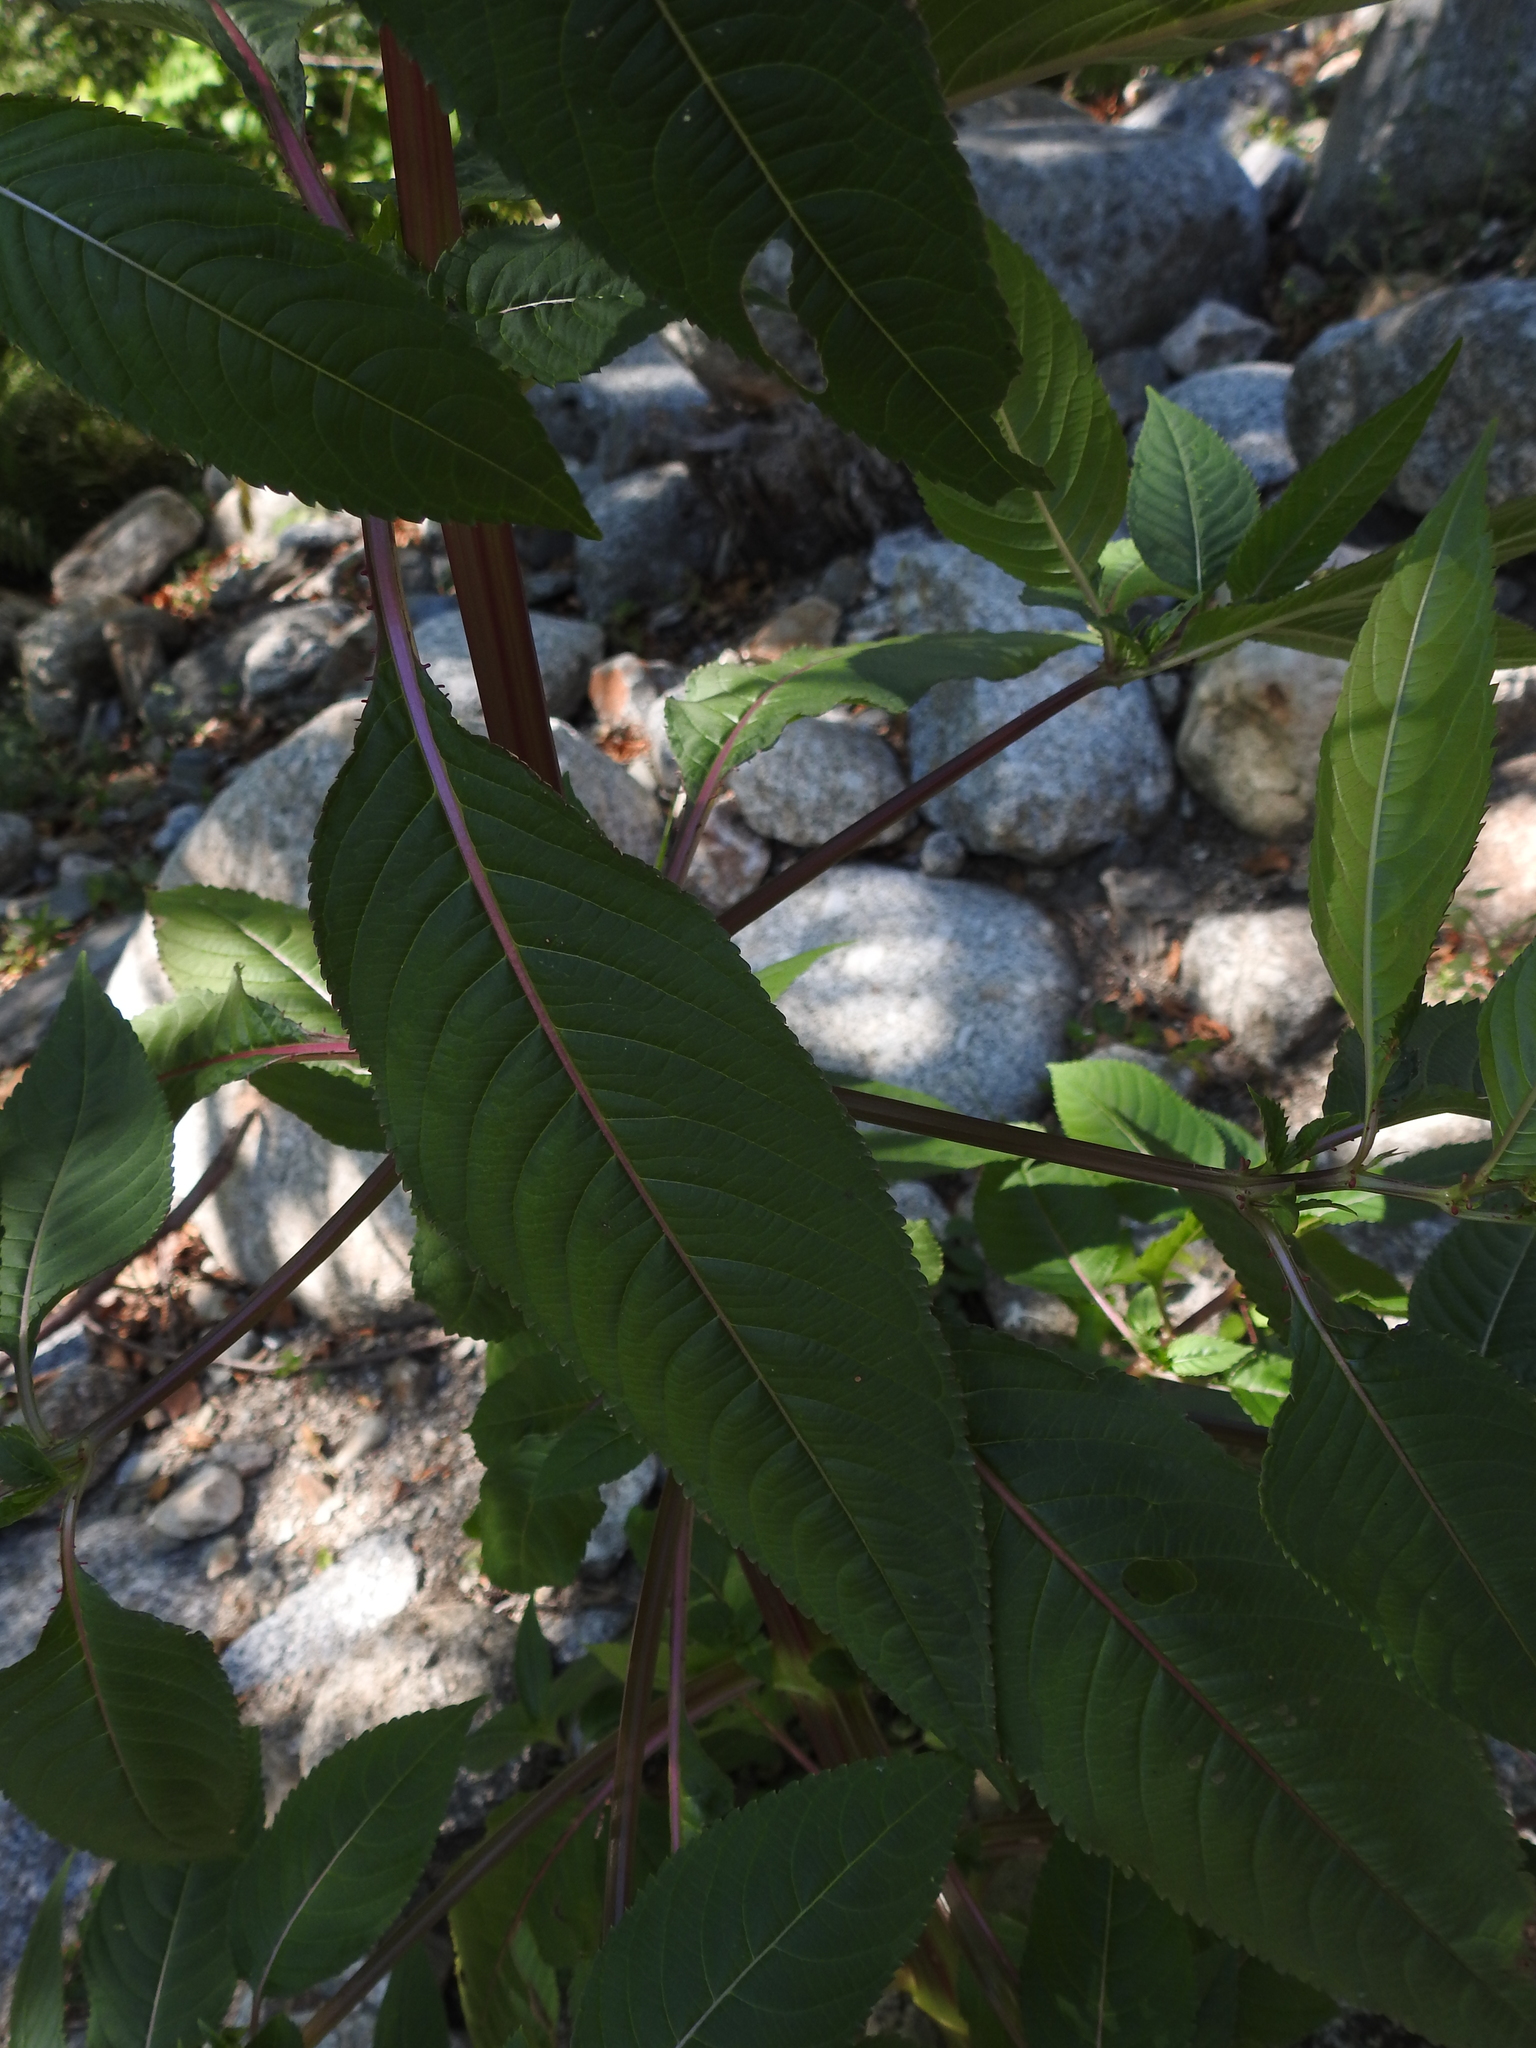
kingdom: Plantae
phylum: Tracheophyta
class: Magnoliopsida
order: Ericales
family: Balsaminaceae
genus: Impatiens
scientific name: Impatiens glandulifera
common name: Himalayan balsam
